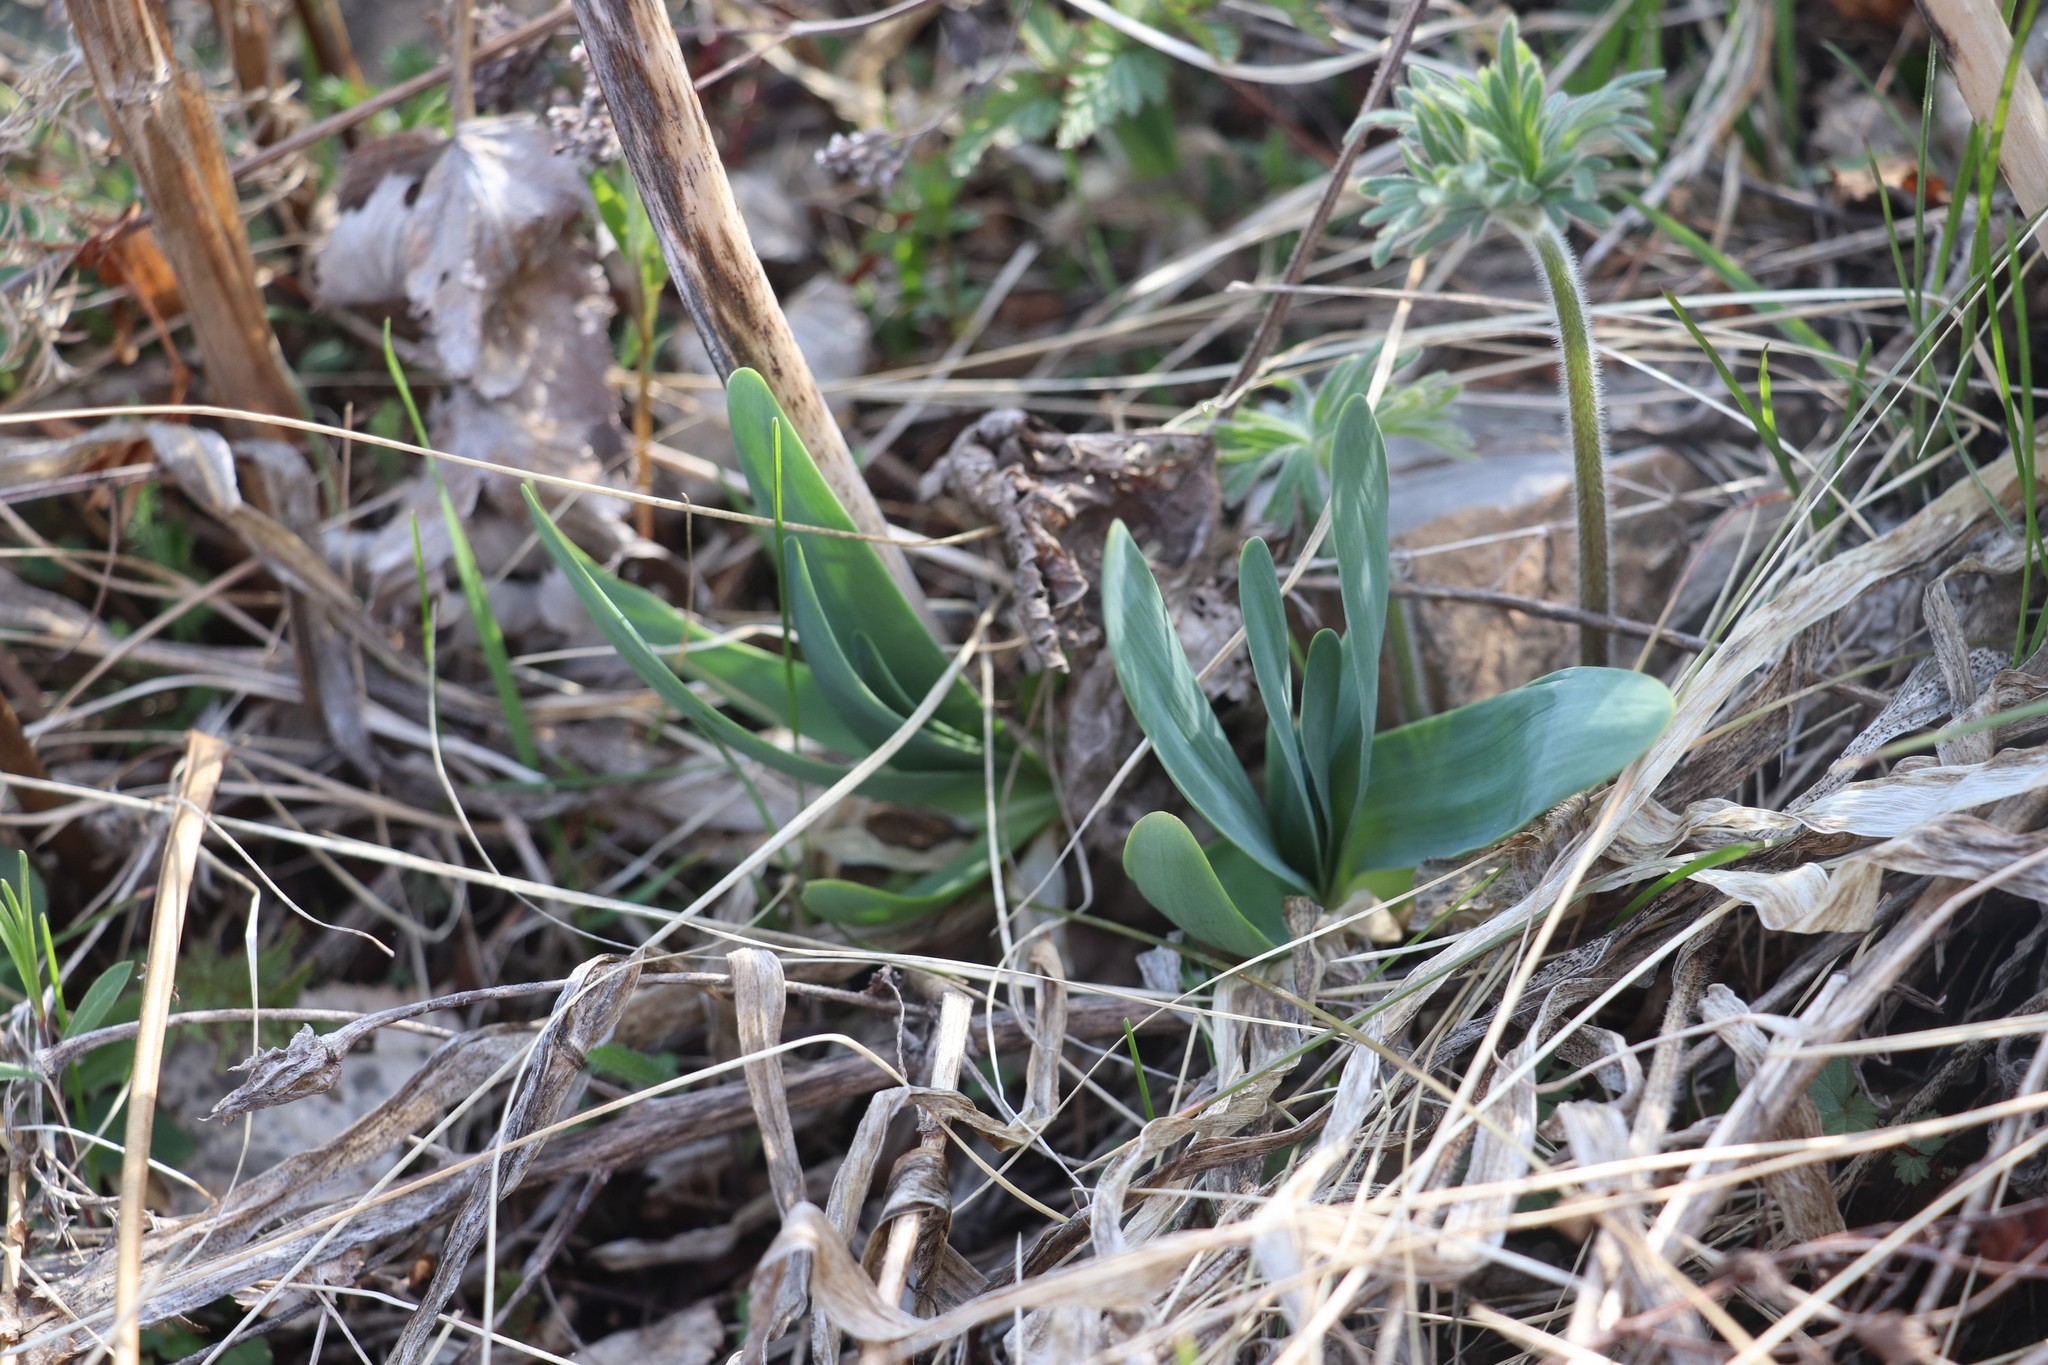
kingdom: Plantae
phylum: Tracheophyta
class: Liliopsida
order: Asparagales
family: Amaryllidaceae
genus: Allium
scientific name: Allium nutans
